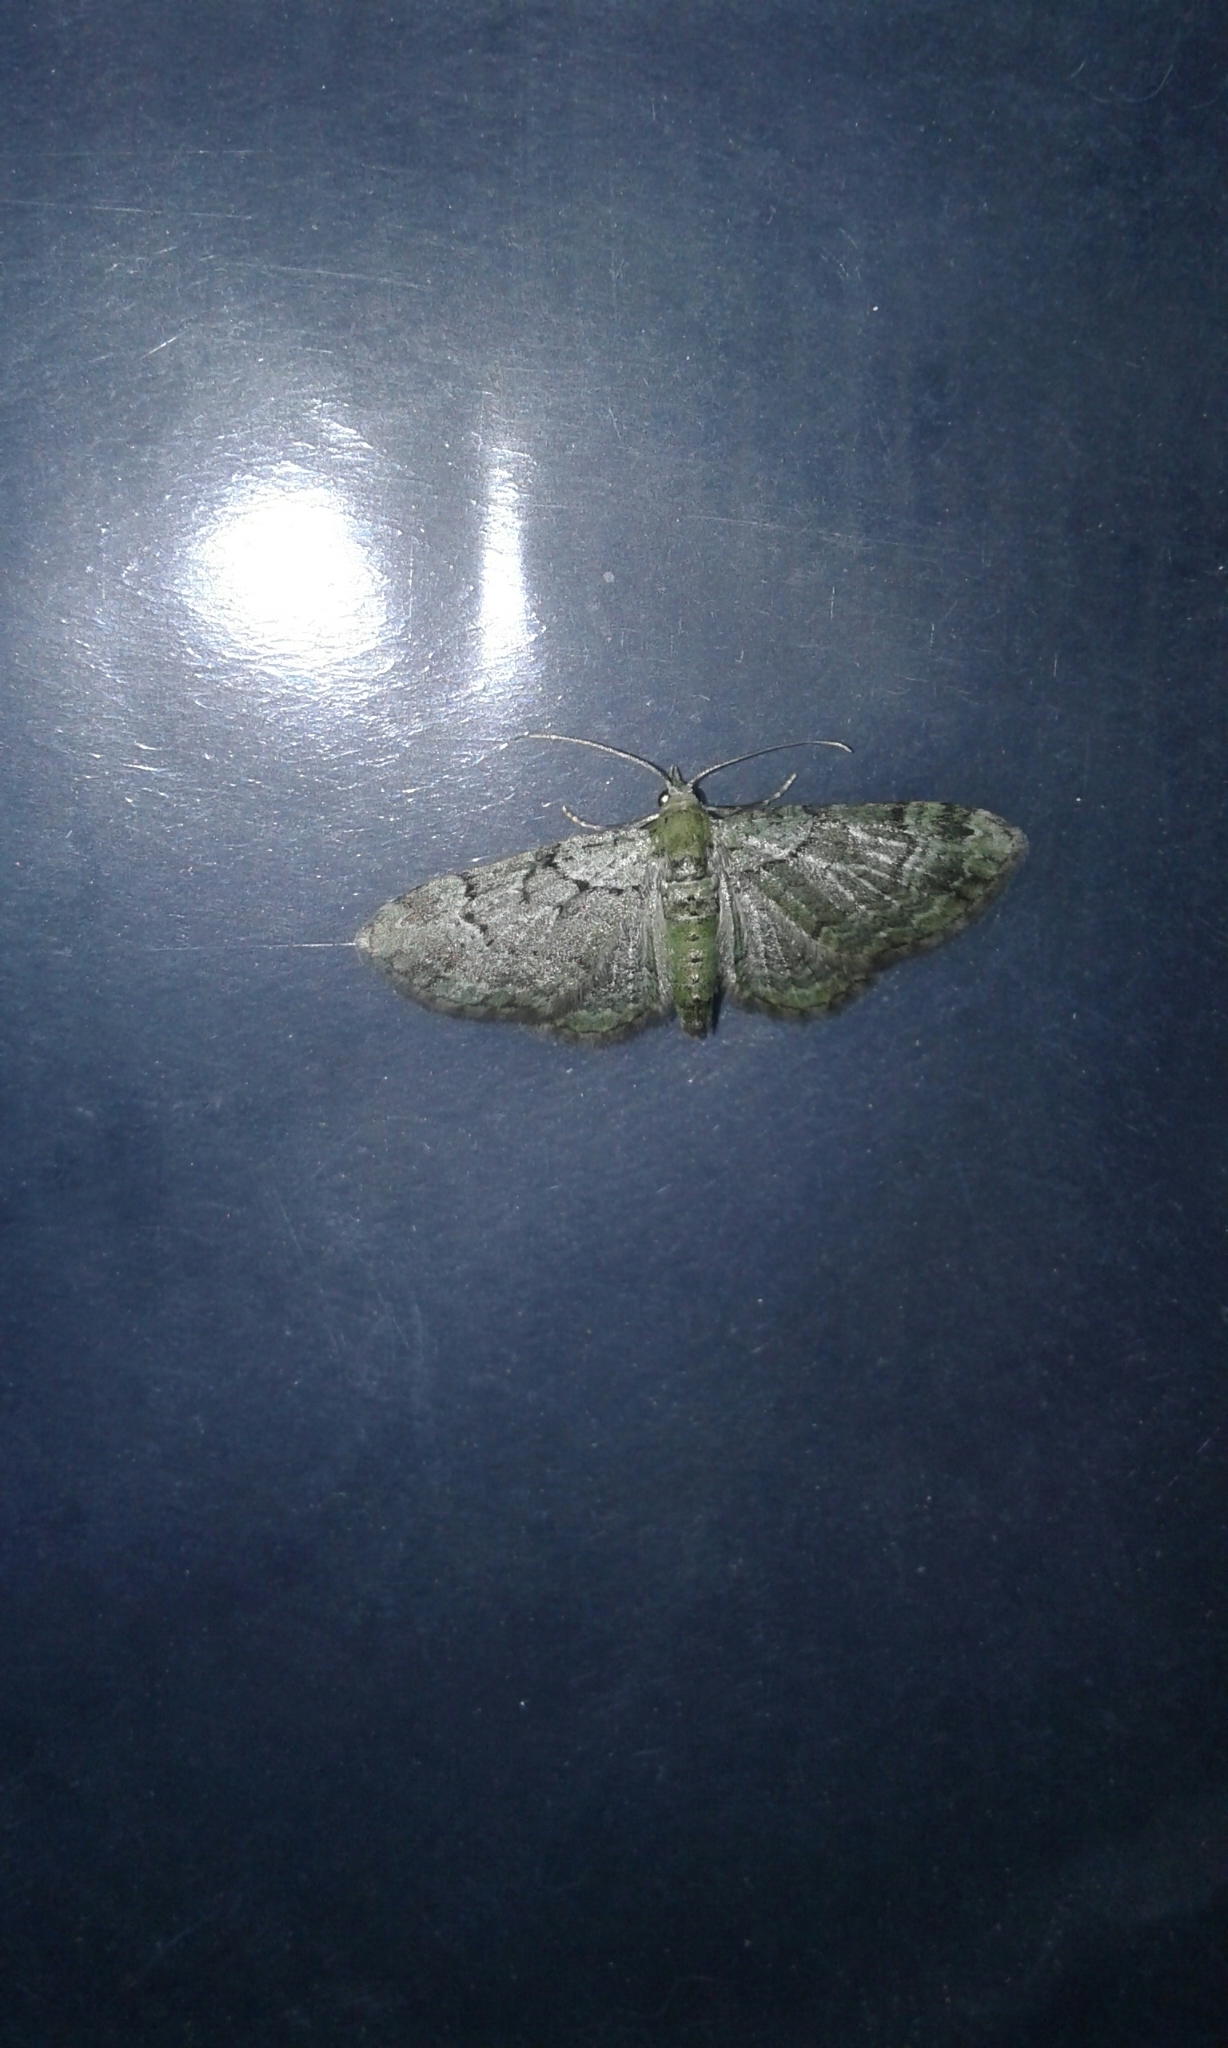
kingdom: Animalia
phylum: Arthropoda
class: Insecta
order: Lepidoptera
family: Geometridae
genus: Pasiphila
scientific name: Pasiphila rectangulata
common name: Green pug
